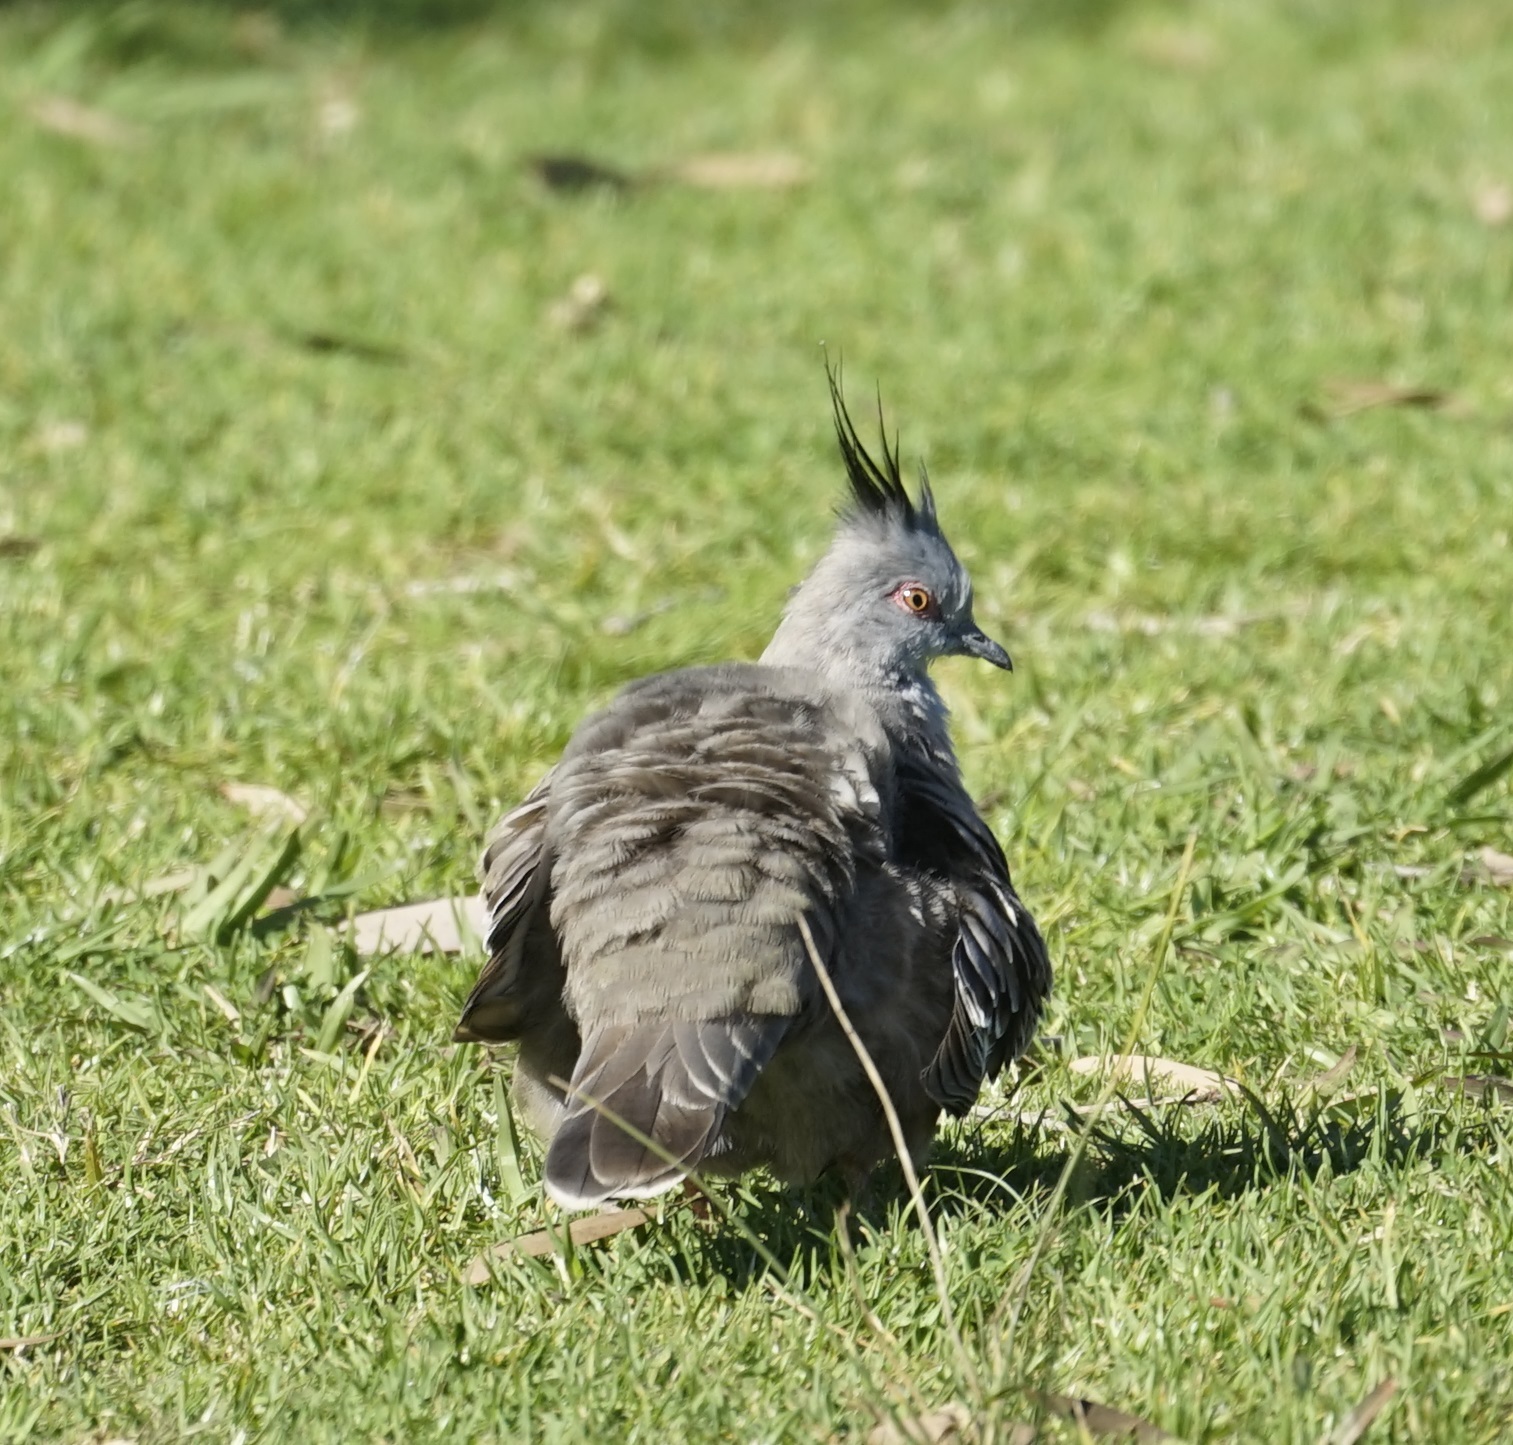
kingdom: Animalia
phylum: Chordata
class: Aves
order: Columbiformes
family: Columbidae
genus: Ocyphaps
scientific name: Ocyphaps lophotes
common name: Crested pigeon
